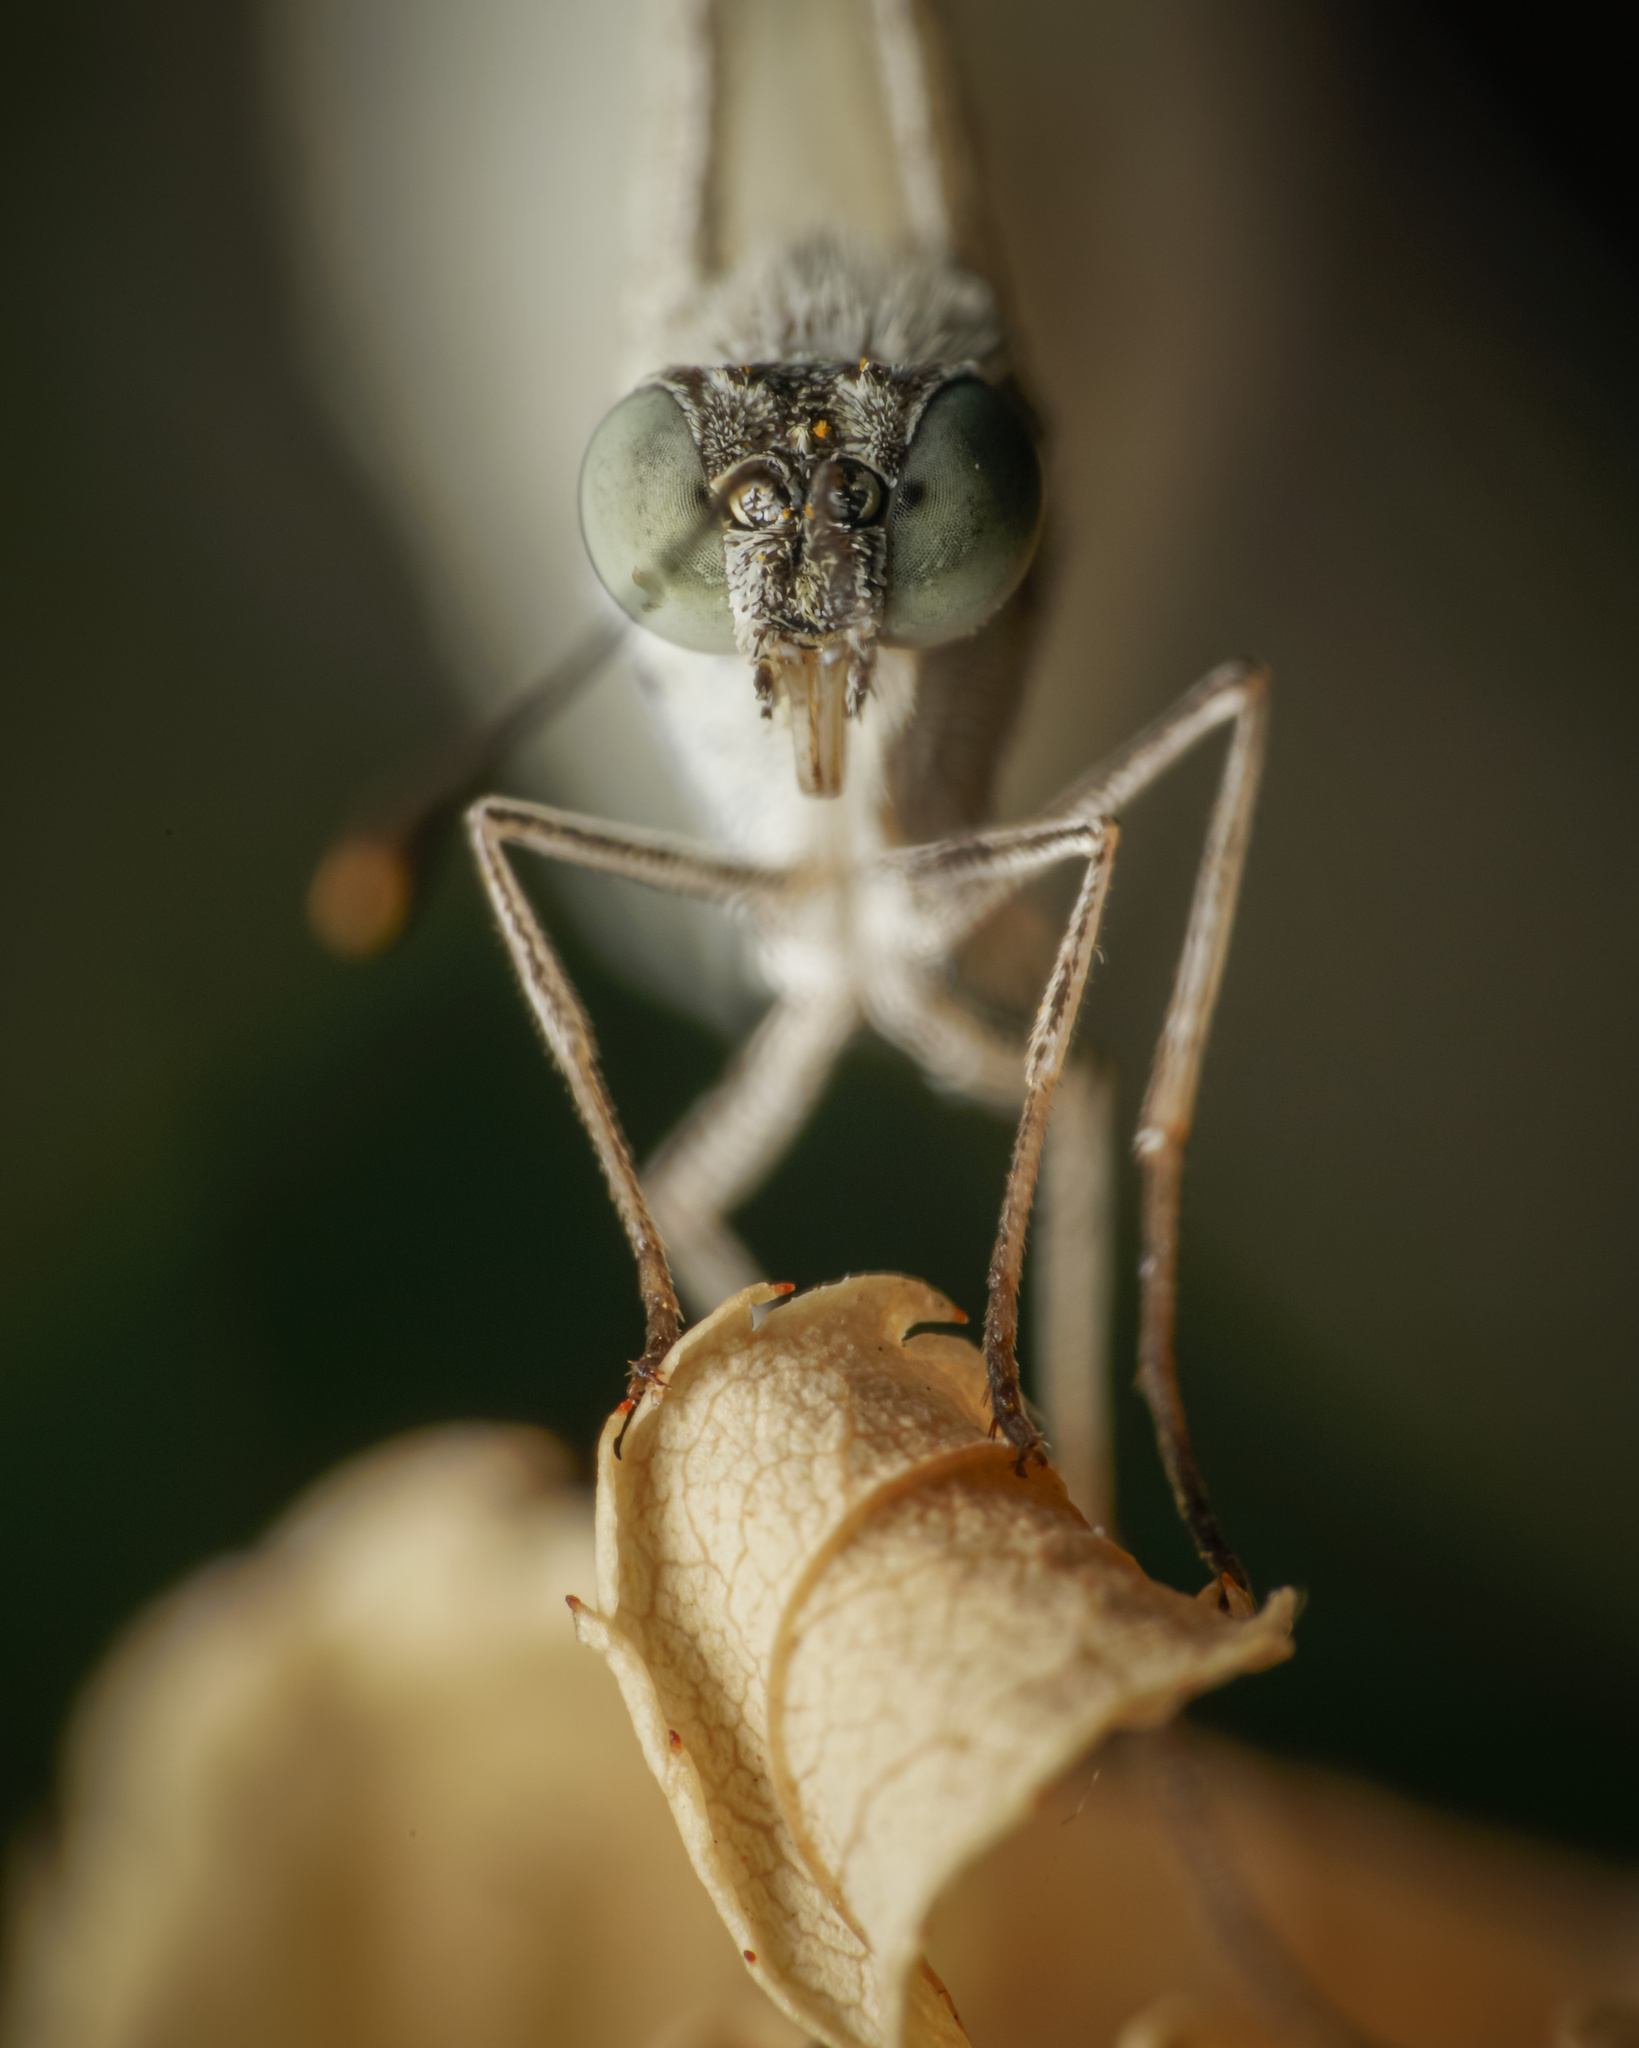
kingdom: Animalia
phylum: Arthropoda
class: Insecta
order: Lepidoptera
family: Pieridae
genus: Leptosia
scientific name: Leptosia nina
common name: Psyche
